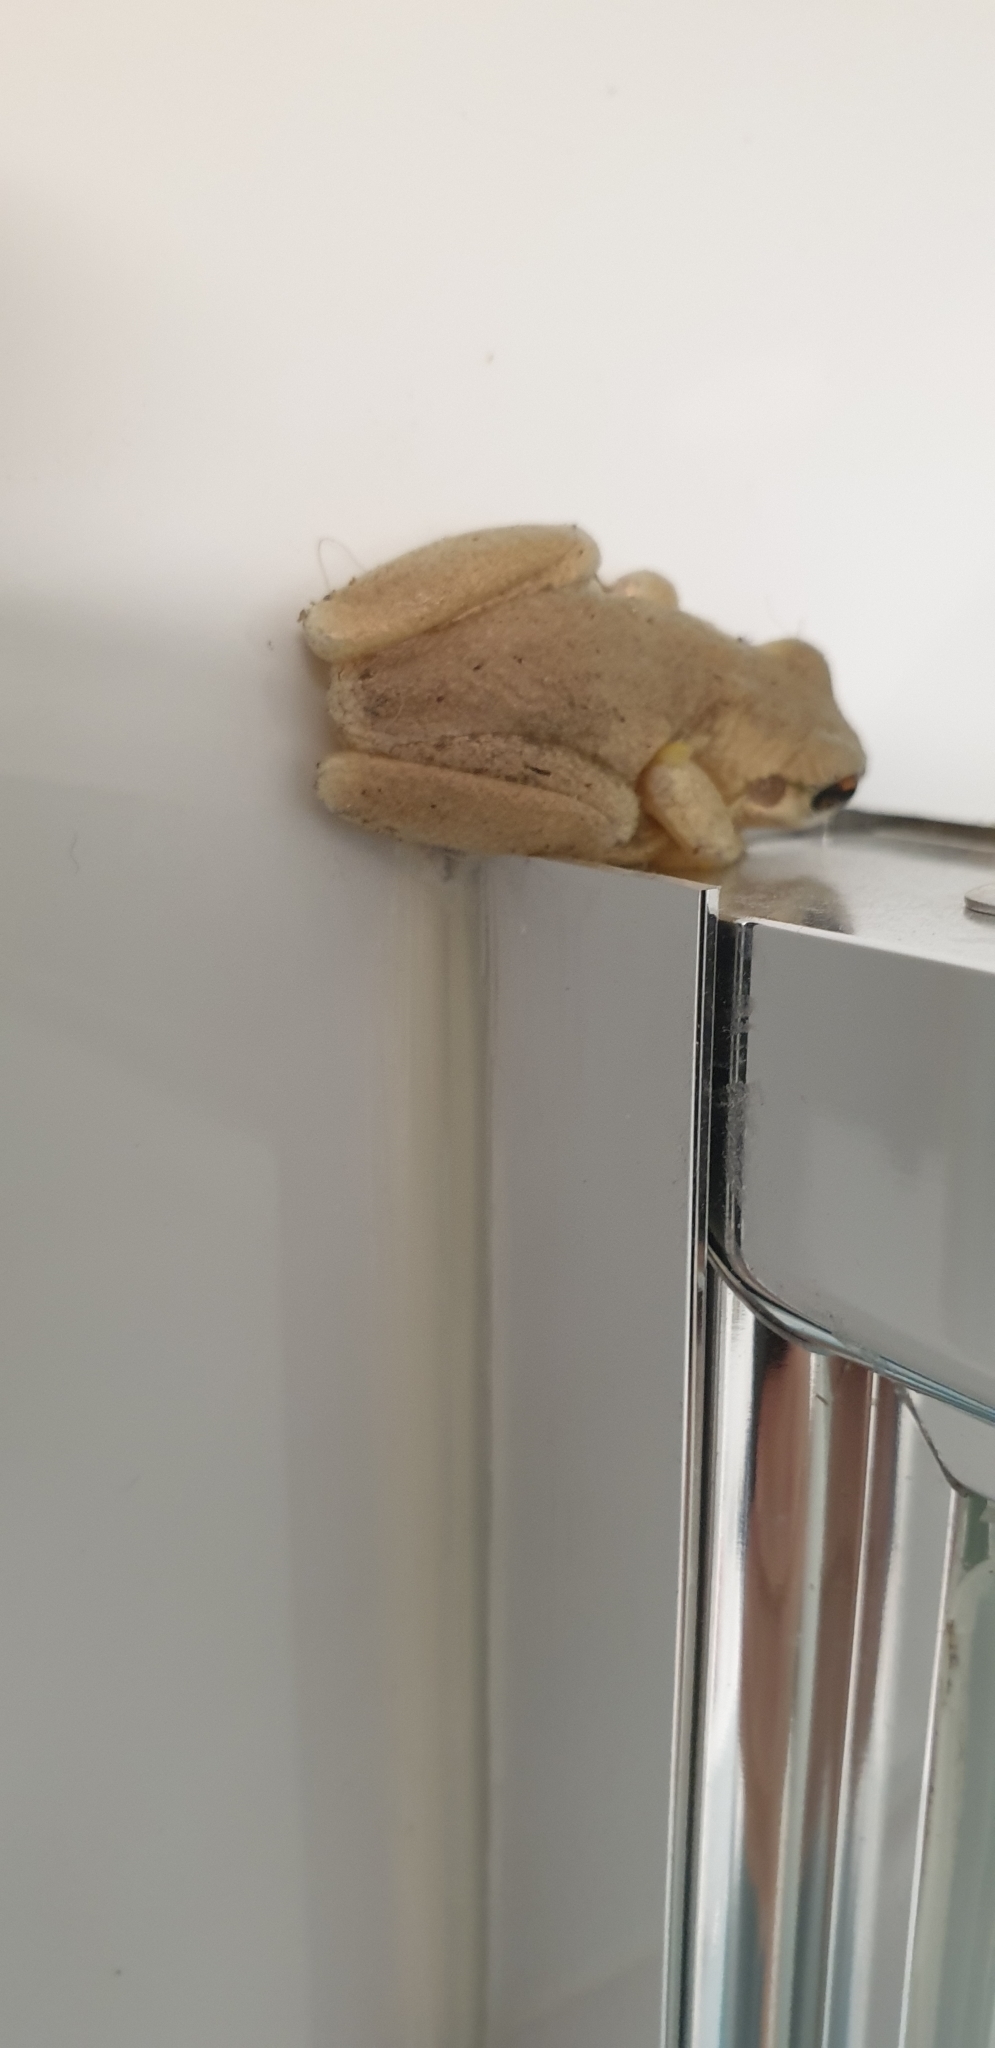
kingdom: Animalia
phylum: Chordata
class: Amphibia
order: Anura
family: Pelodryadidae
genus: Litoria
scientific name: Litoria peronii
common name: Emerald spotted treefrog
